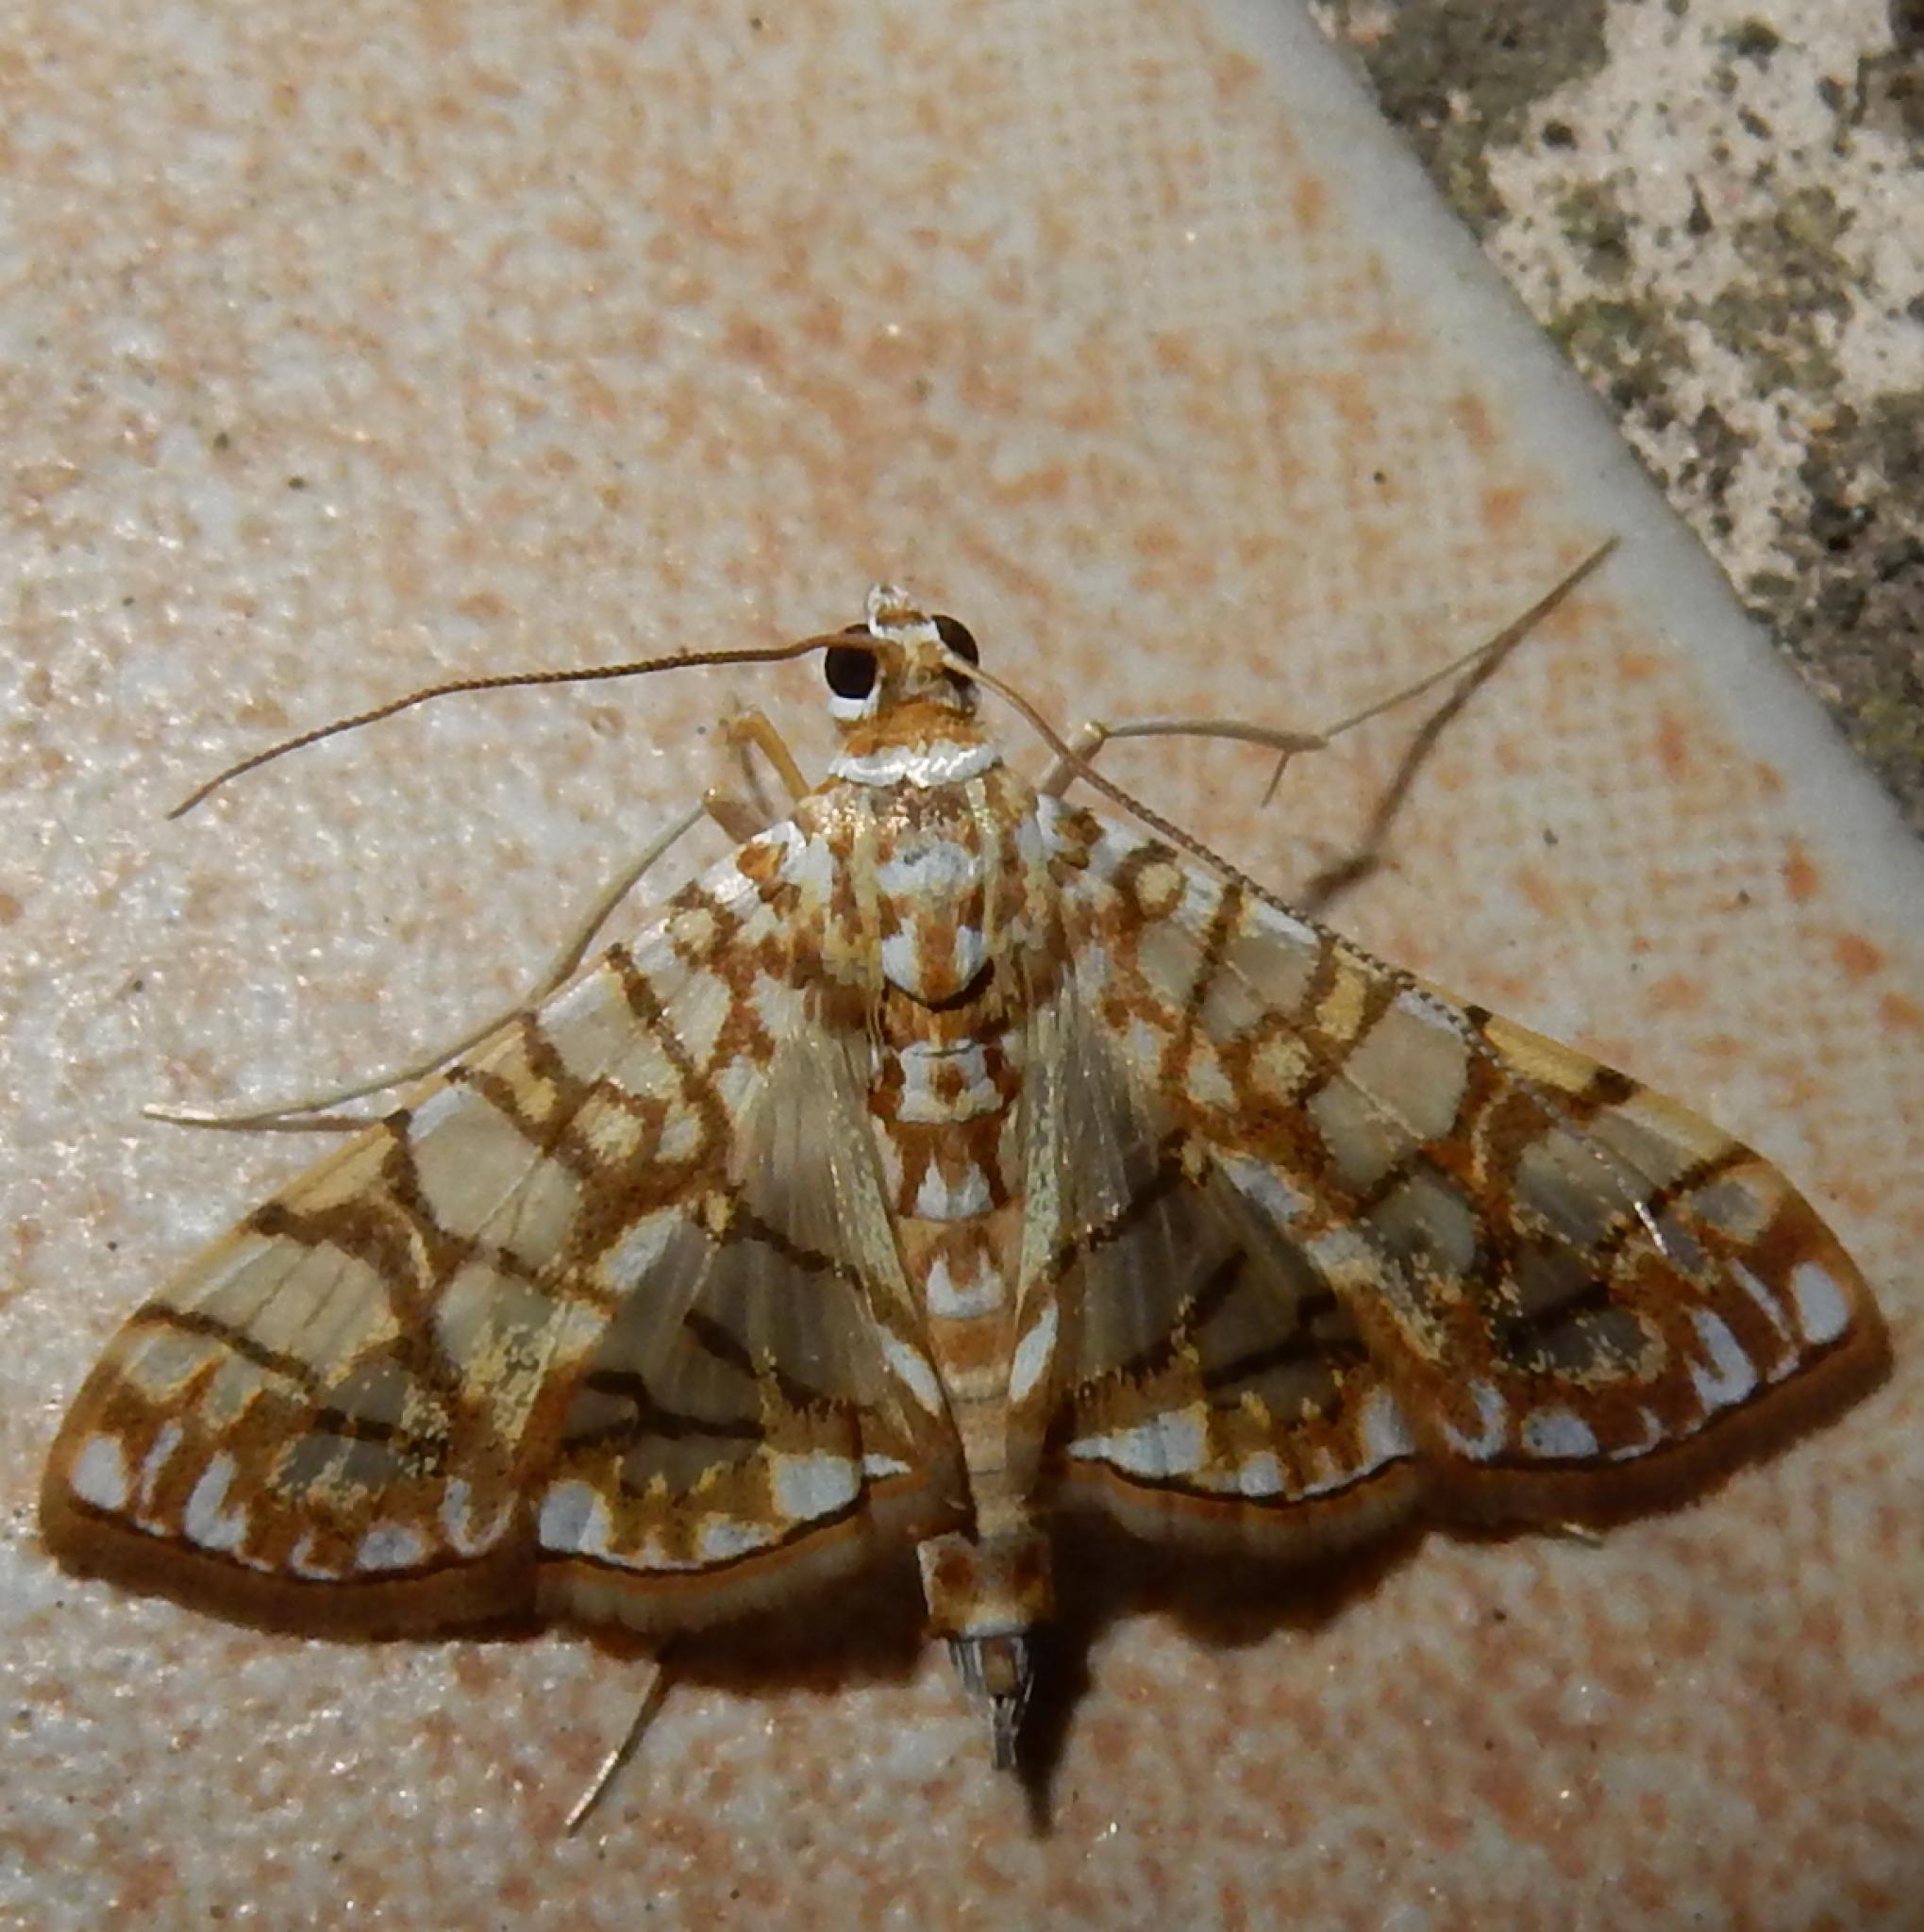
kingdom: Animalia
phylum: Arthropoda
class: Insecta
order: Lepidoptera
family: Crambidae
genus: Synclera
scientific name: Synclera traducalis
